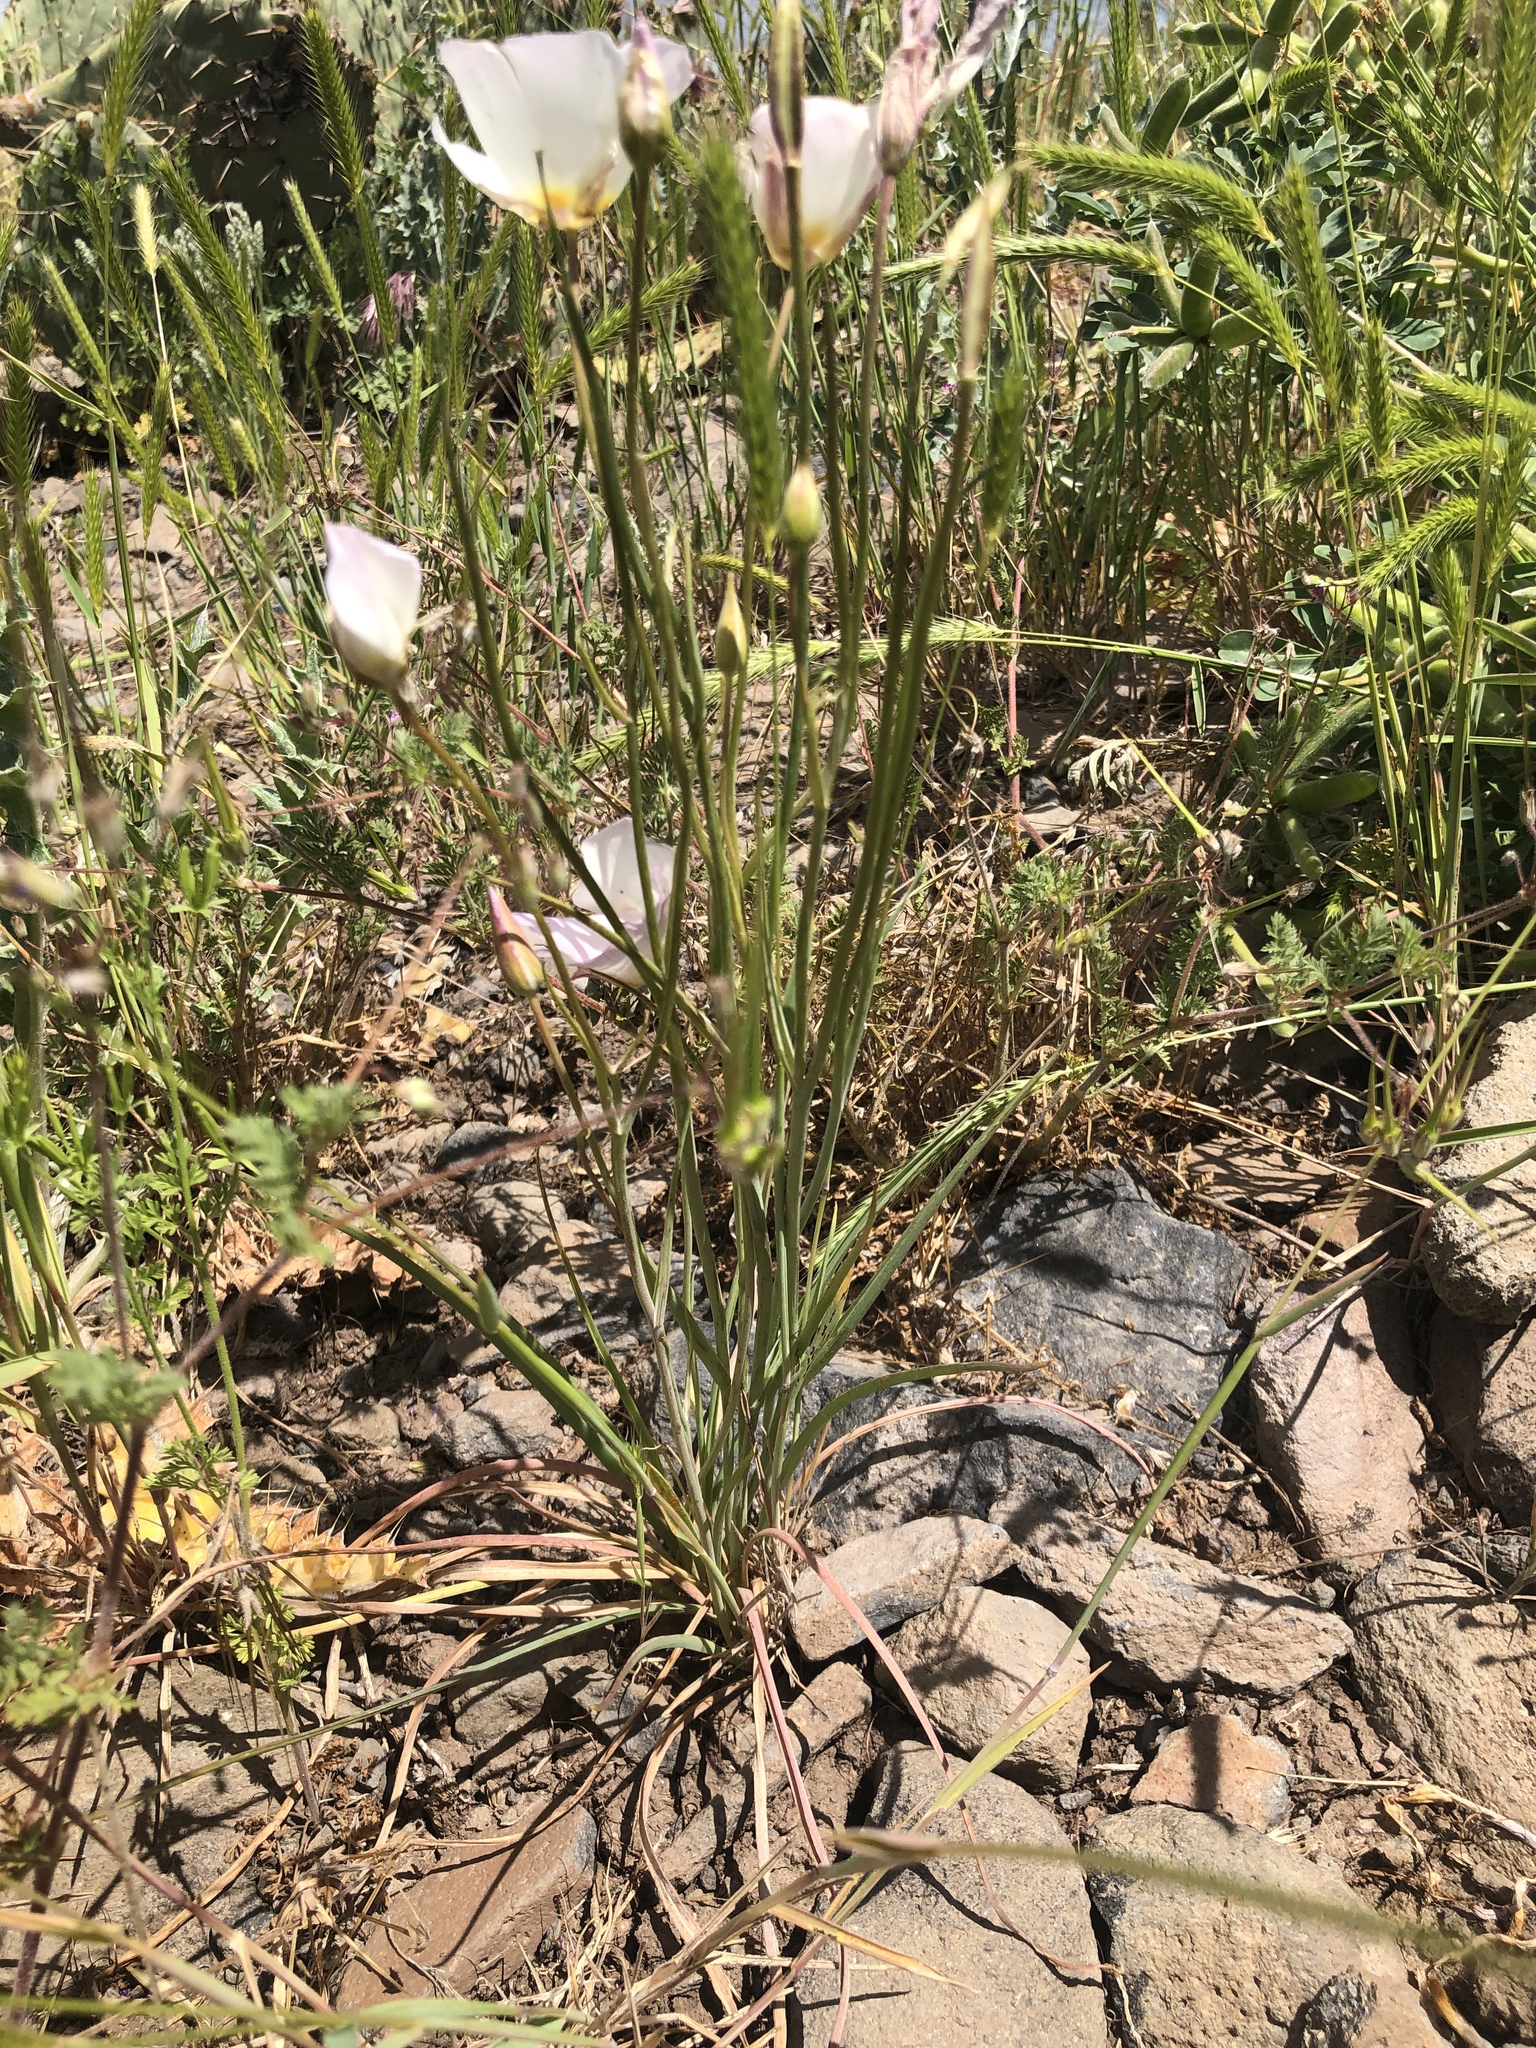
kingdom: Plantae
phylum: Tracheophyta
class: Liliopsida
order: Liliales
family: Liliaceae
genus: Calochortus
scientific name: Calochortus flexuosus
